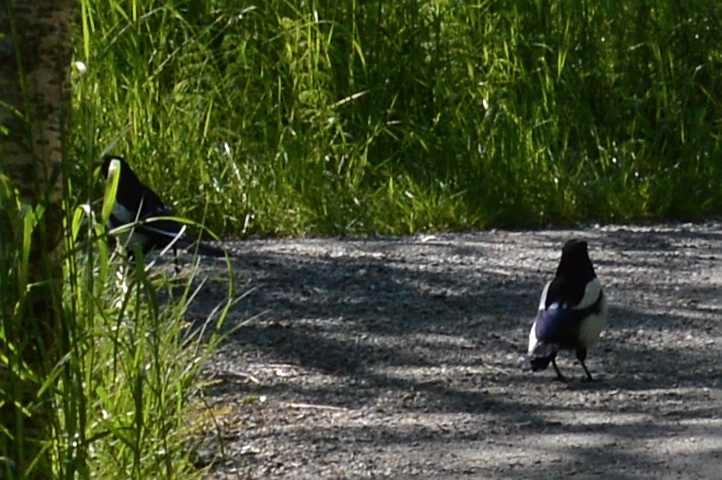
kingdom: Animalia
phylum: Chordata
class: Aves
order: Passeriformes
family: Corvidae
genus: Pica
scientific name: Pica pica
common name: Eurasian magpie
